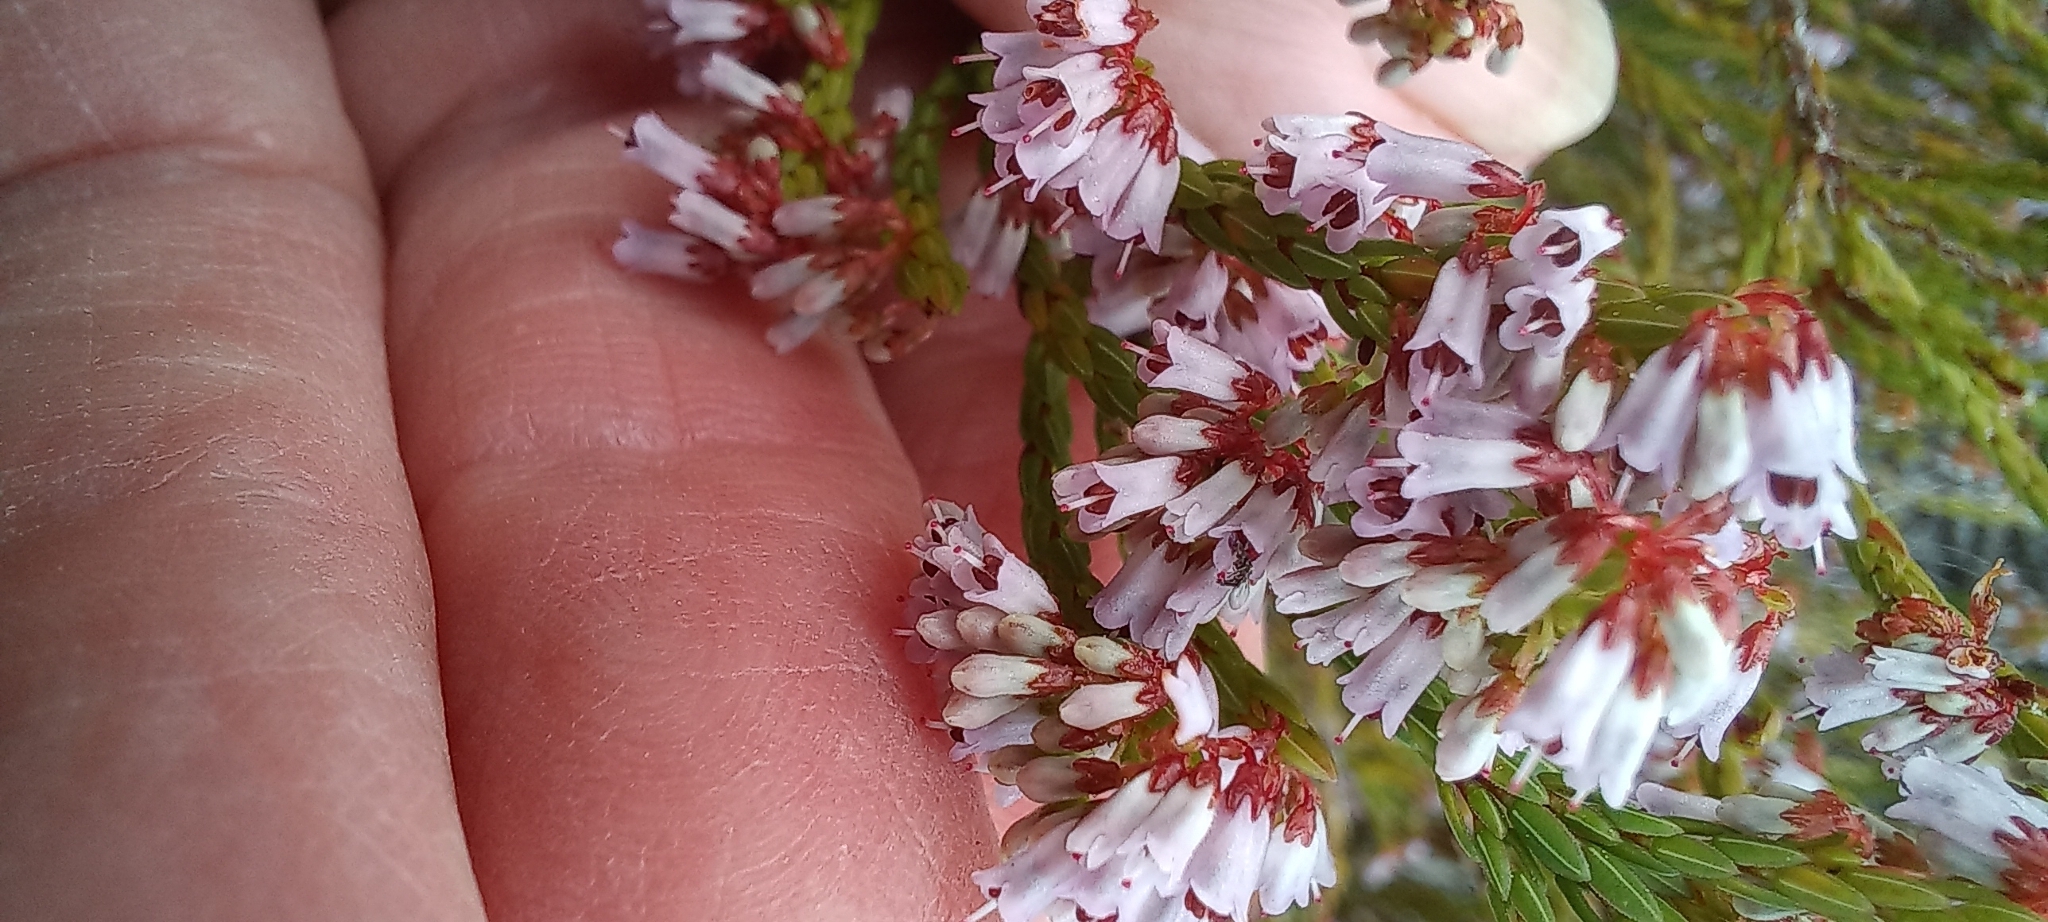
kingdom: Plantae
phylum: Tracheophyta
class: Magnoliopsida
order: Ericales
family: Ericaceae
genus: Erica
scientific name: Erica equisetifolia
